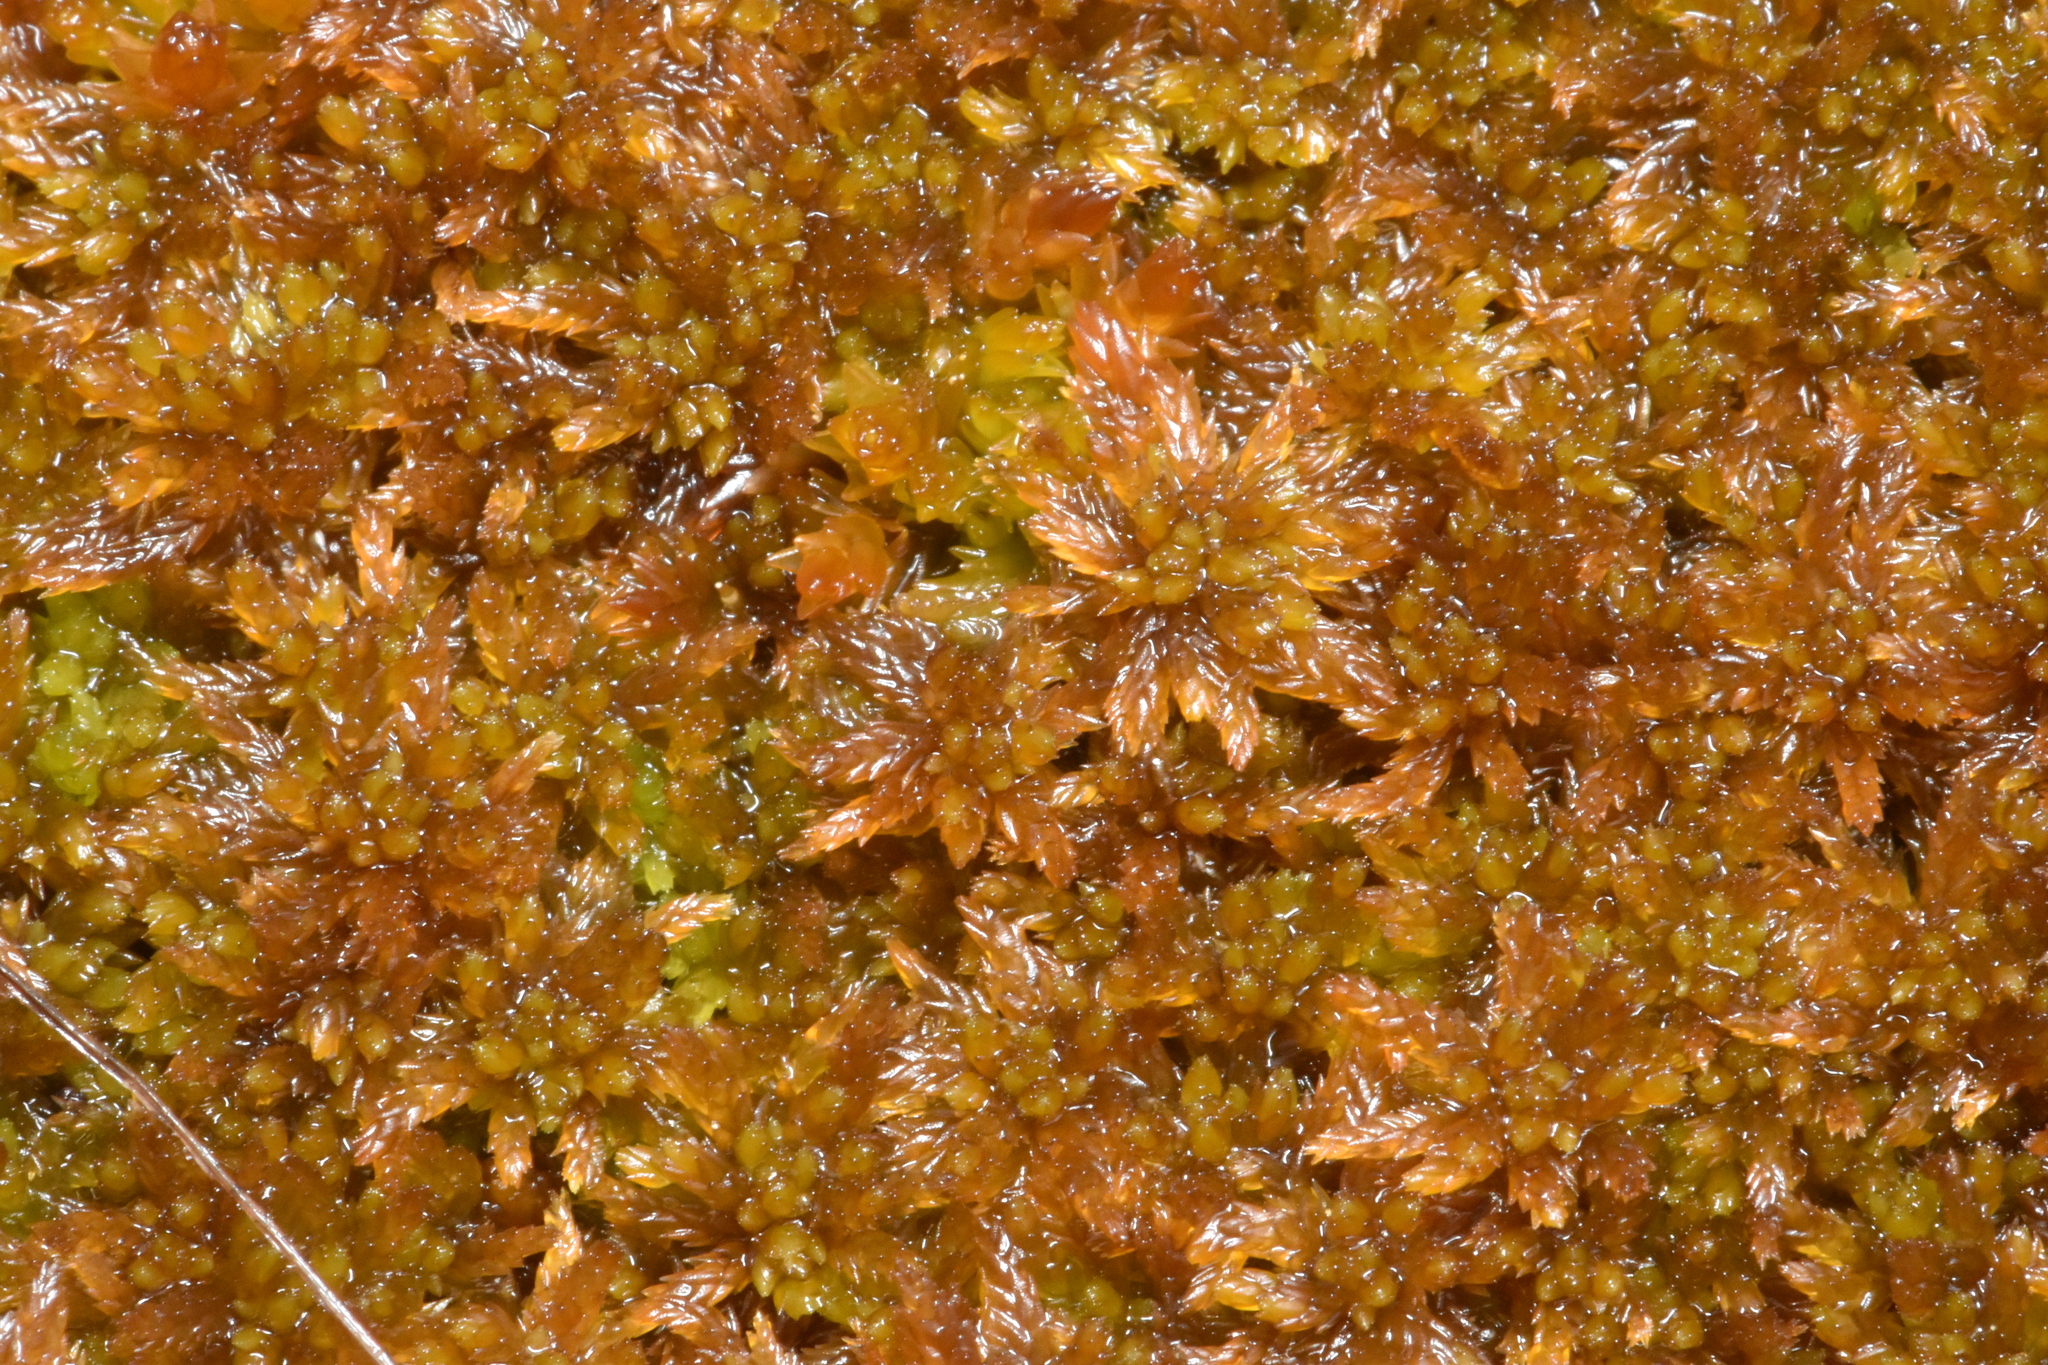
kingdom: Plantae
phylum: Bryophyta
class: Sphagnopsida
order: Sphagnales
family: Sphagnaceae
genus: Sphagnum
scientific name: Sphagnum fuscum
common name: Brown peat moss
